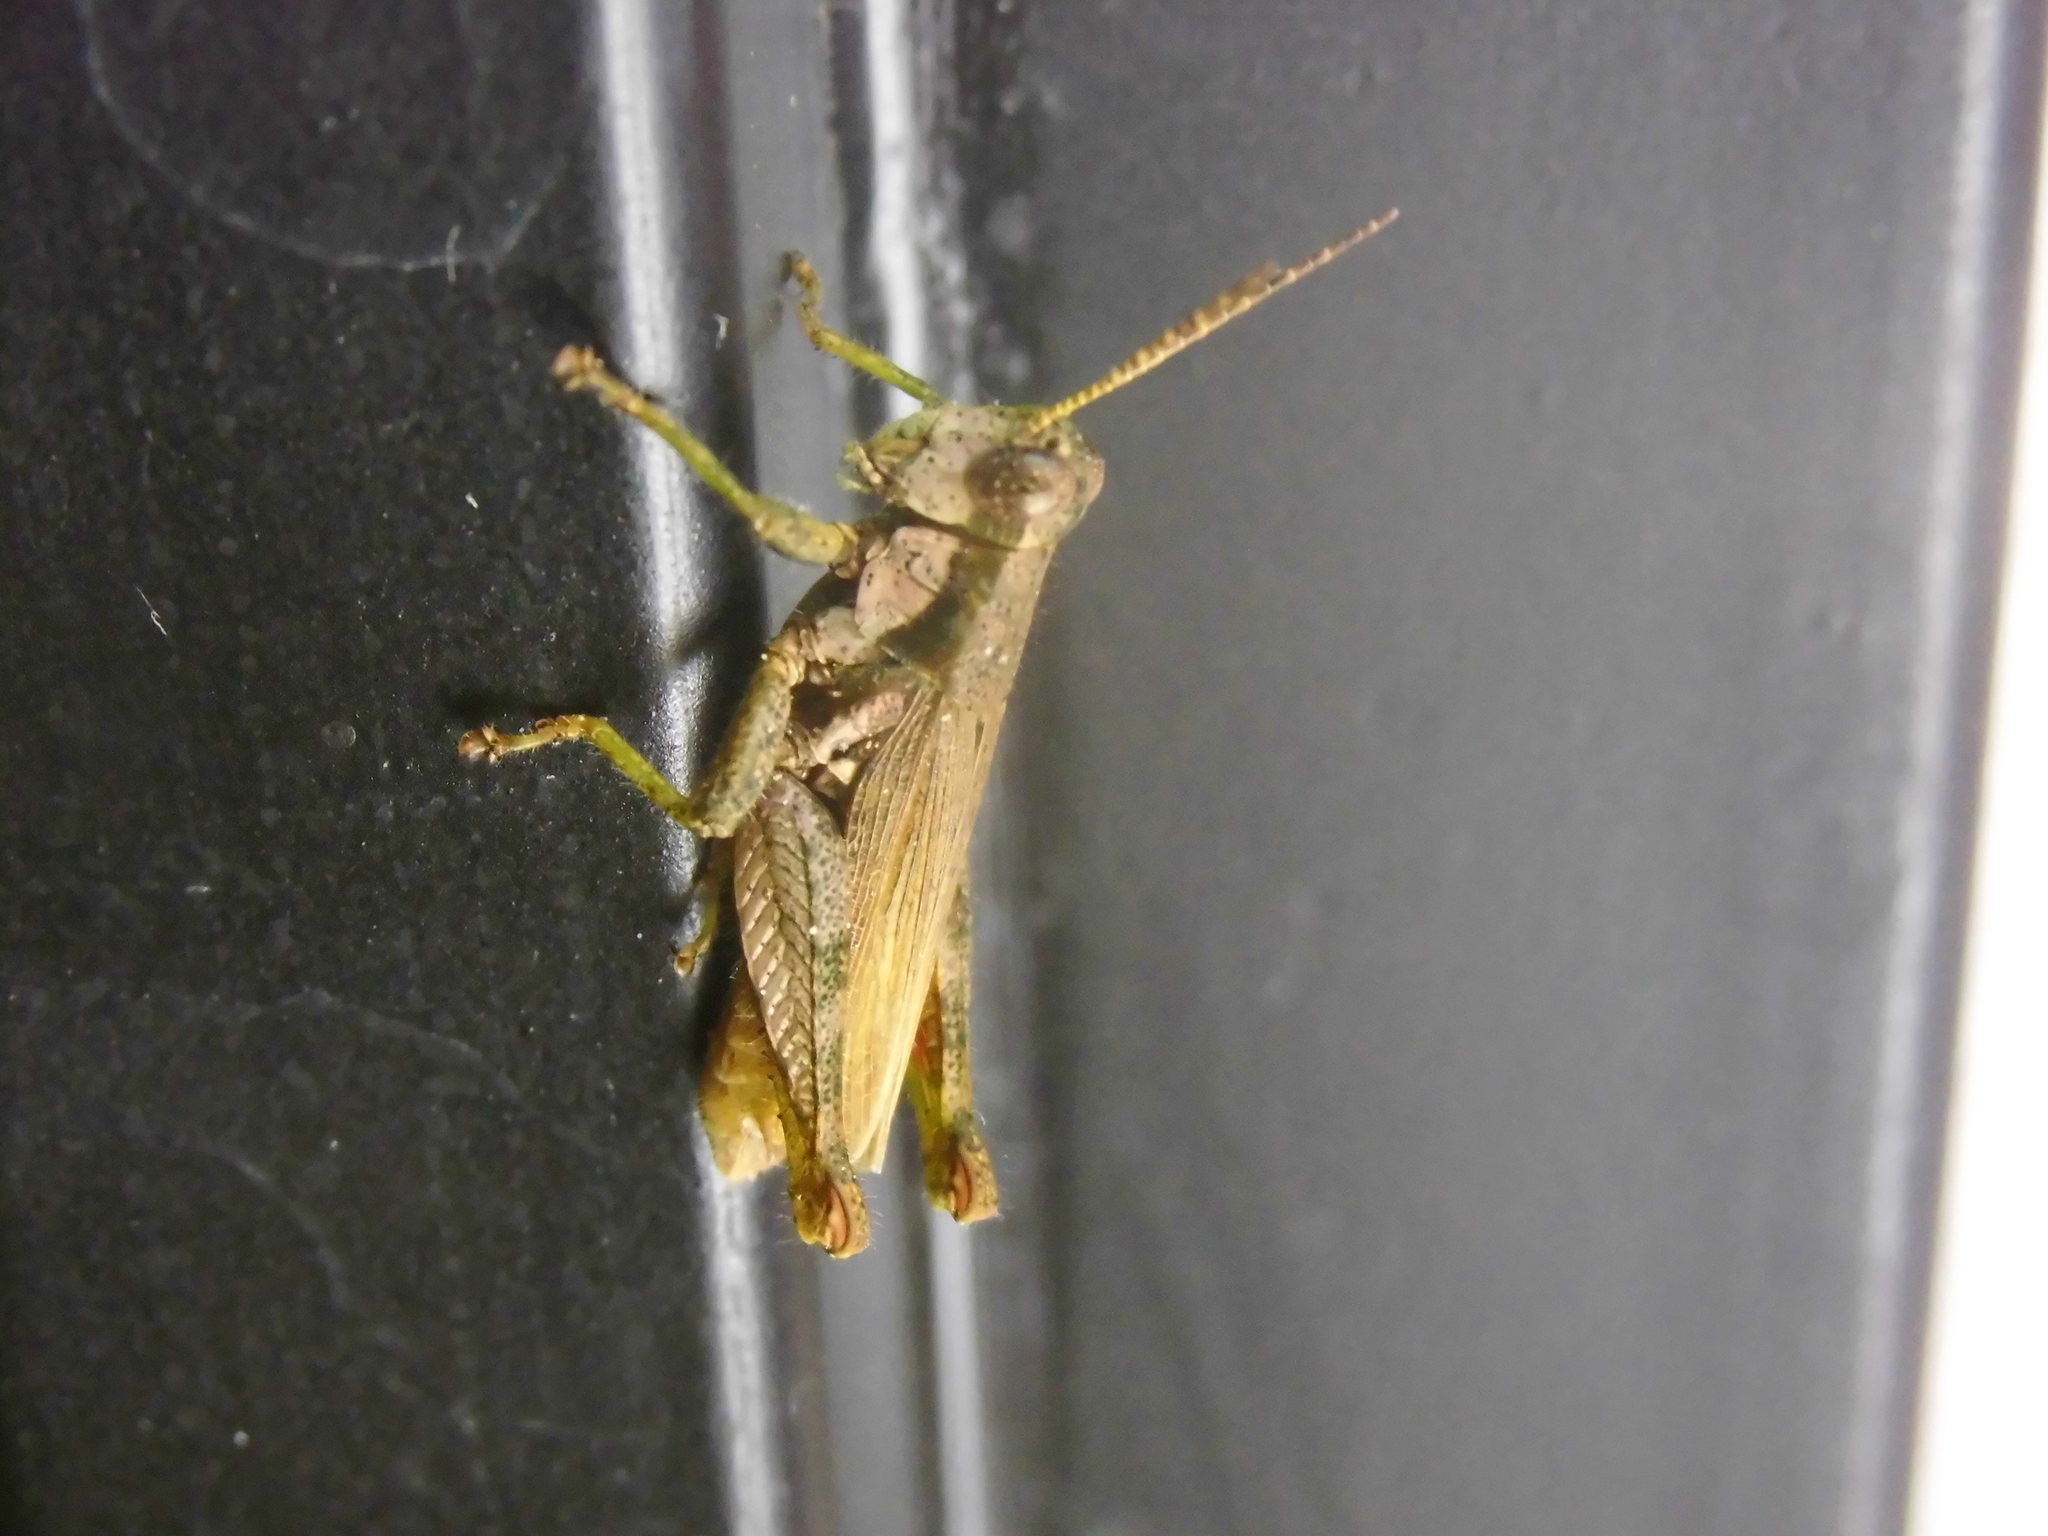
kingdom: Animalia
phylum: Arthropoda
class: Insecta
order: Orthoptera
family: Acrididae
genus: Ronderosia
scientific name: Ronderosia bergii
